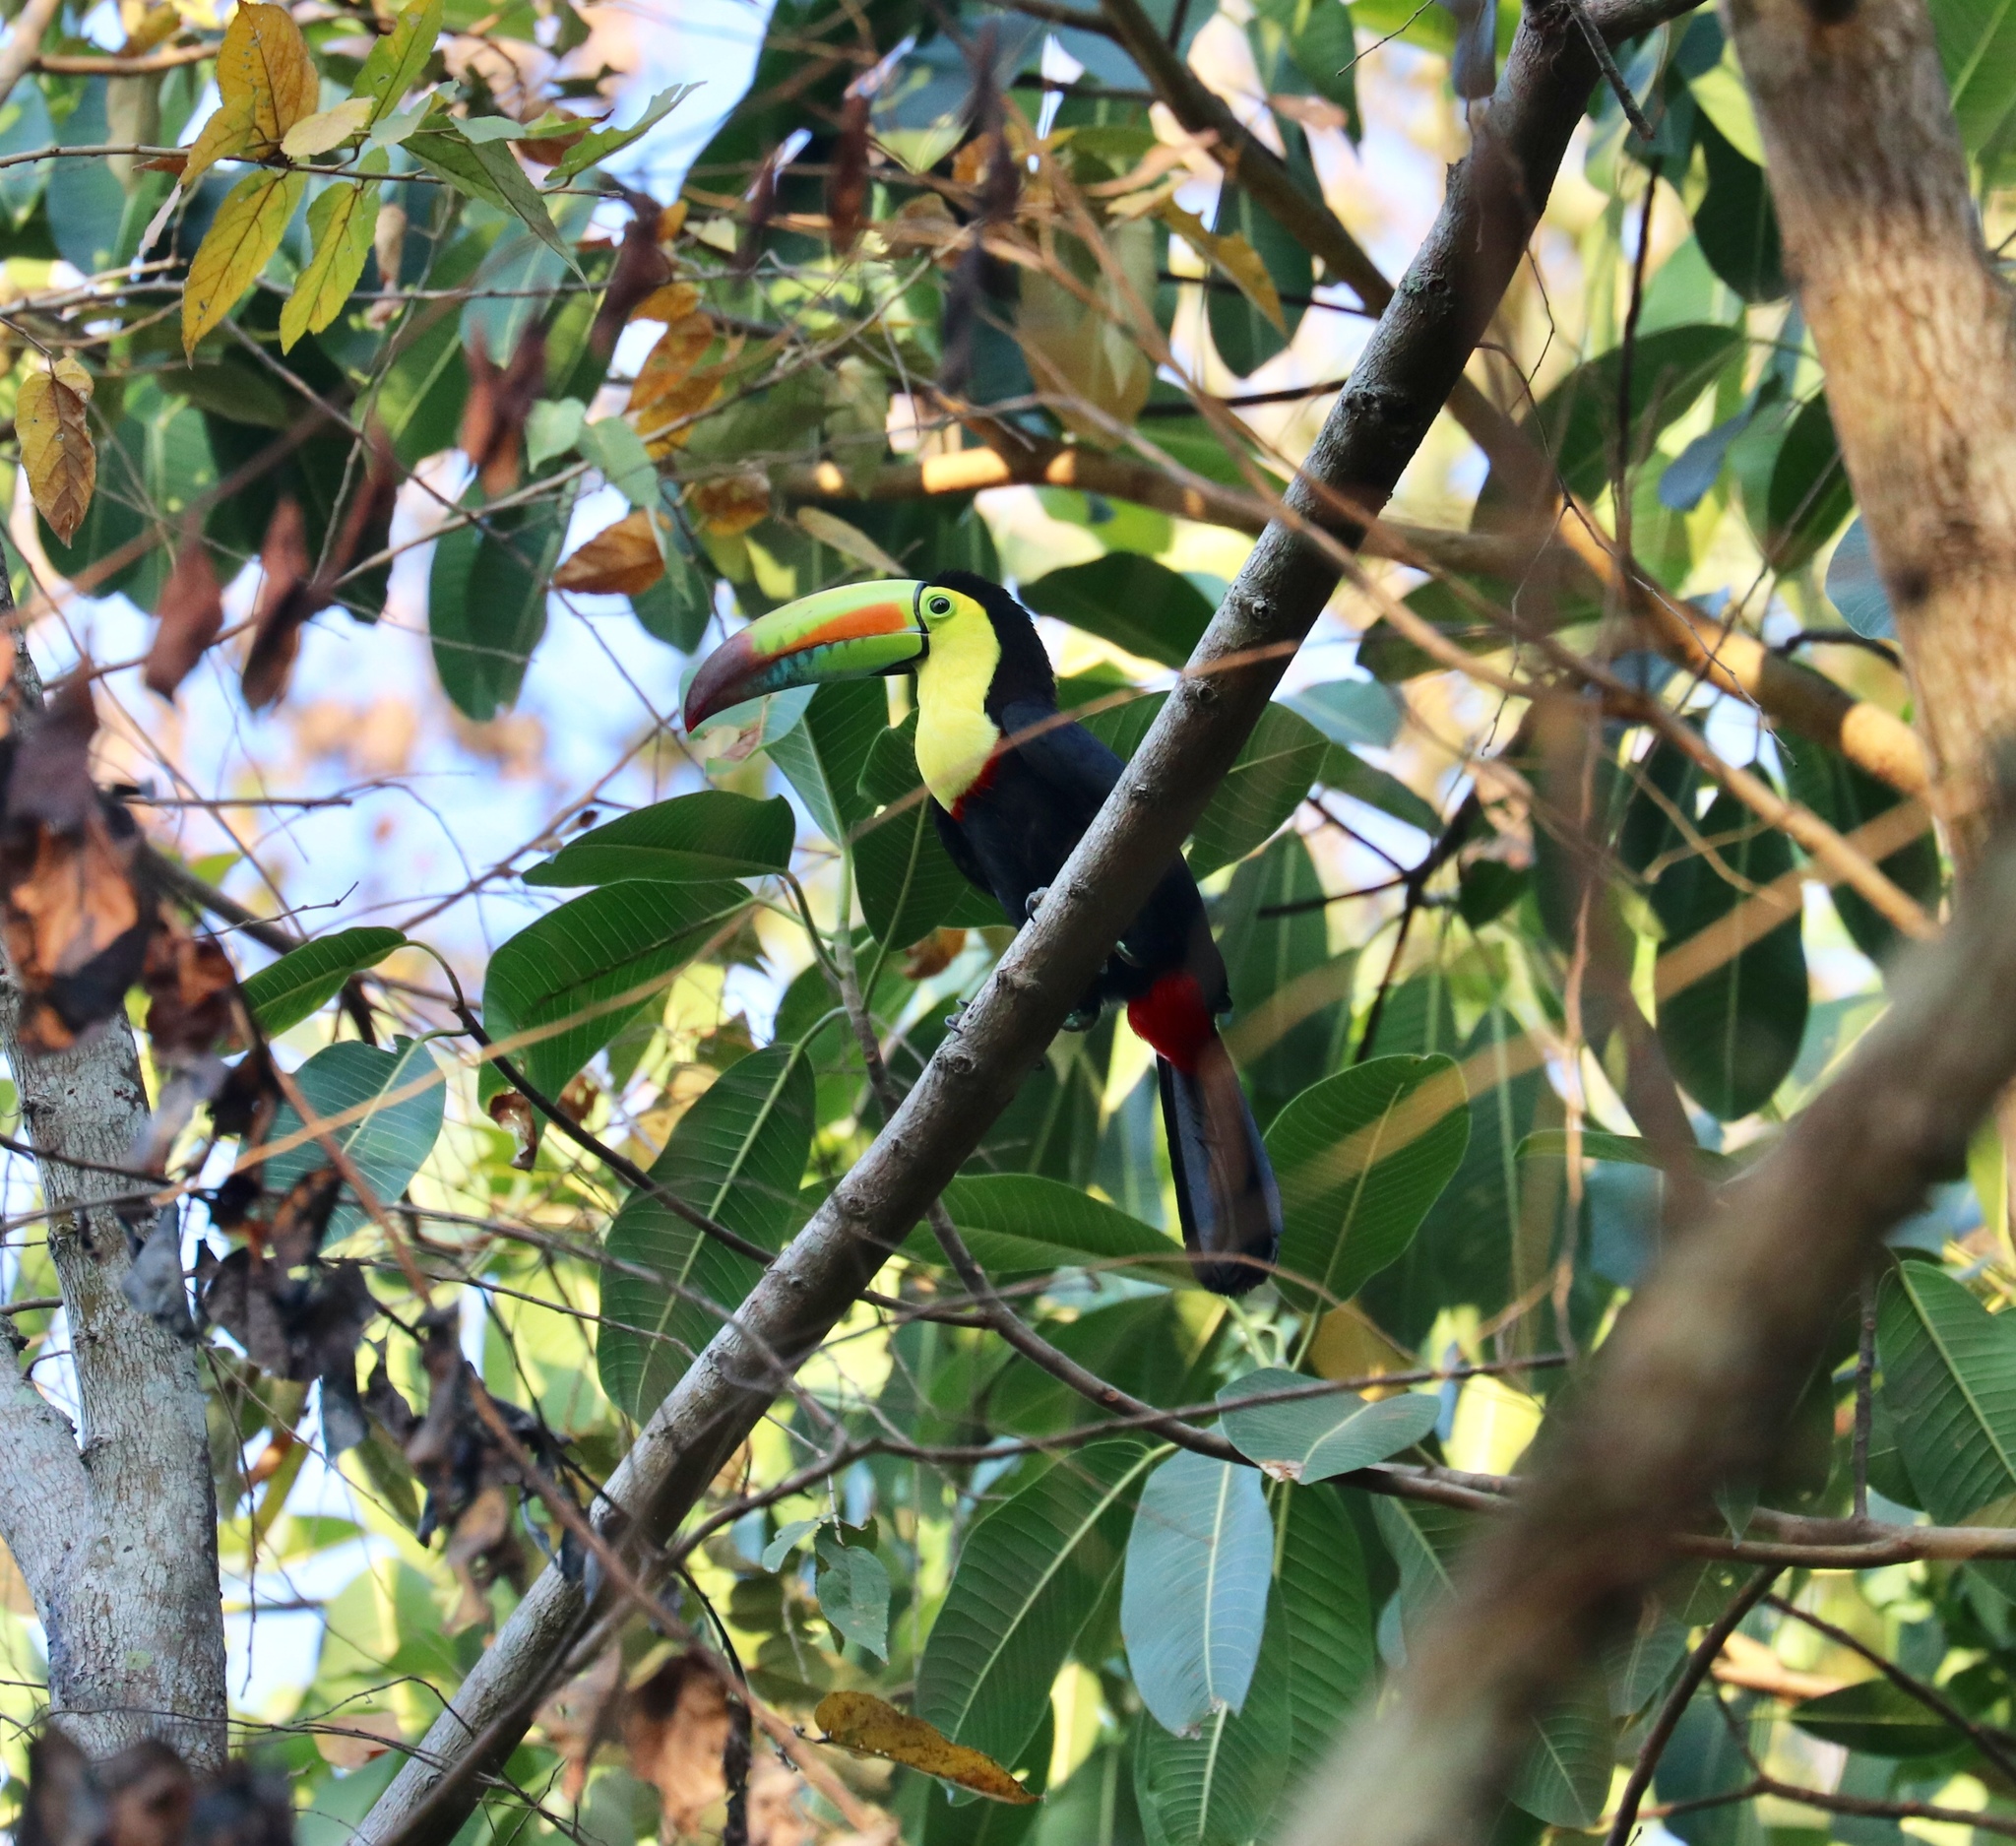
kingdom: Animalia
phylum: Chordata
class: Aves
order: Piciformes
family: Ramphastidae
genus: Ramphastos
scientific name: Ramphastos sulfuratus
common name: Keel-billed toucan
